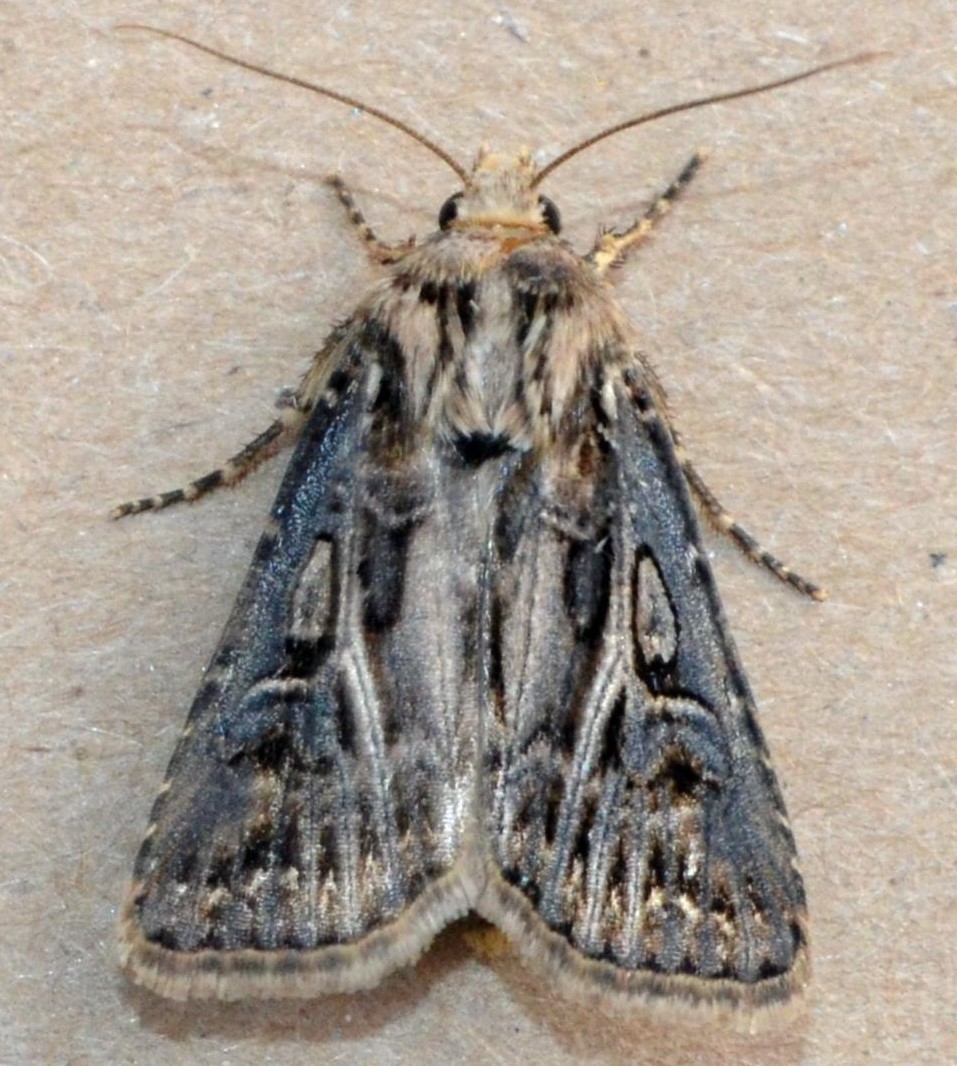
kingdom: Animalia
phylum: Arthropoda
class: Insecta
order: Lepidoptera
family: Noctuidae
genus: Agrotis
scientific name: Agrotis gladiaria
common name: Claybacked cutworm
